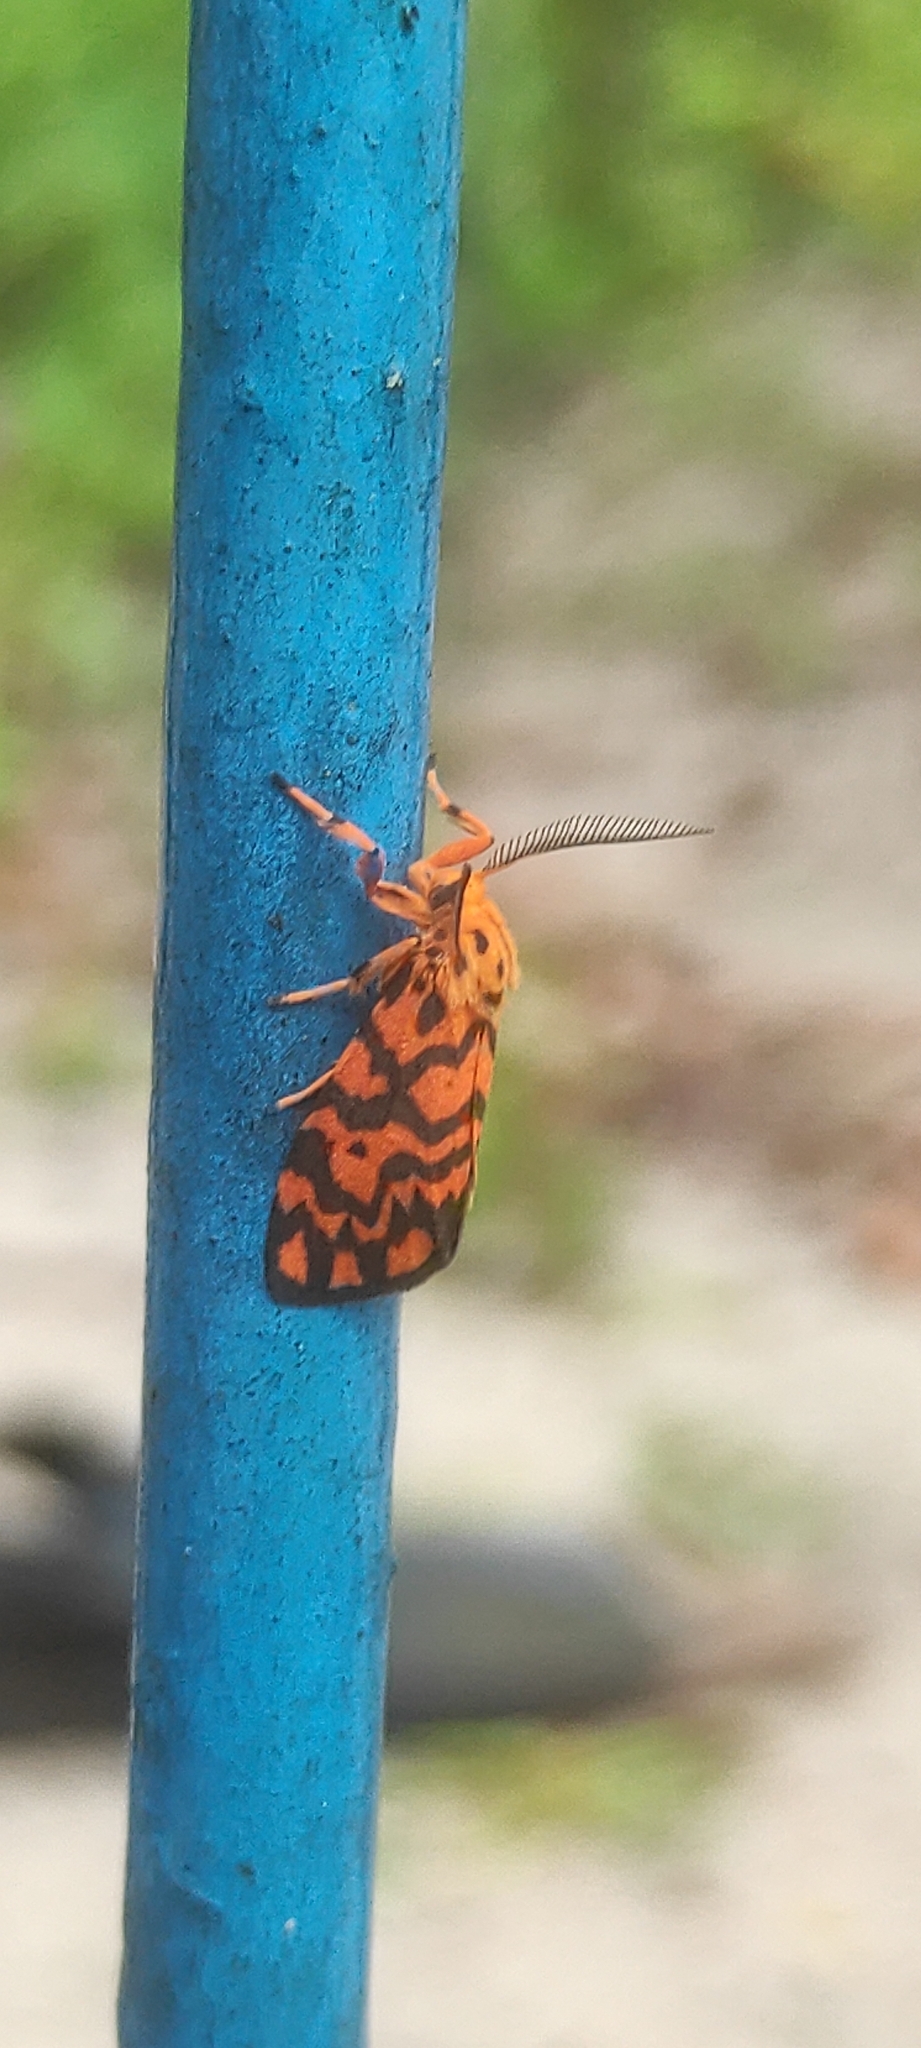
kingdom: Animalia
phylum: Arthropoda
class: Insecta
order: Lepidoptera
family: Erebidae
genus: Nepita
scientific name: Nepita conferta
